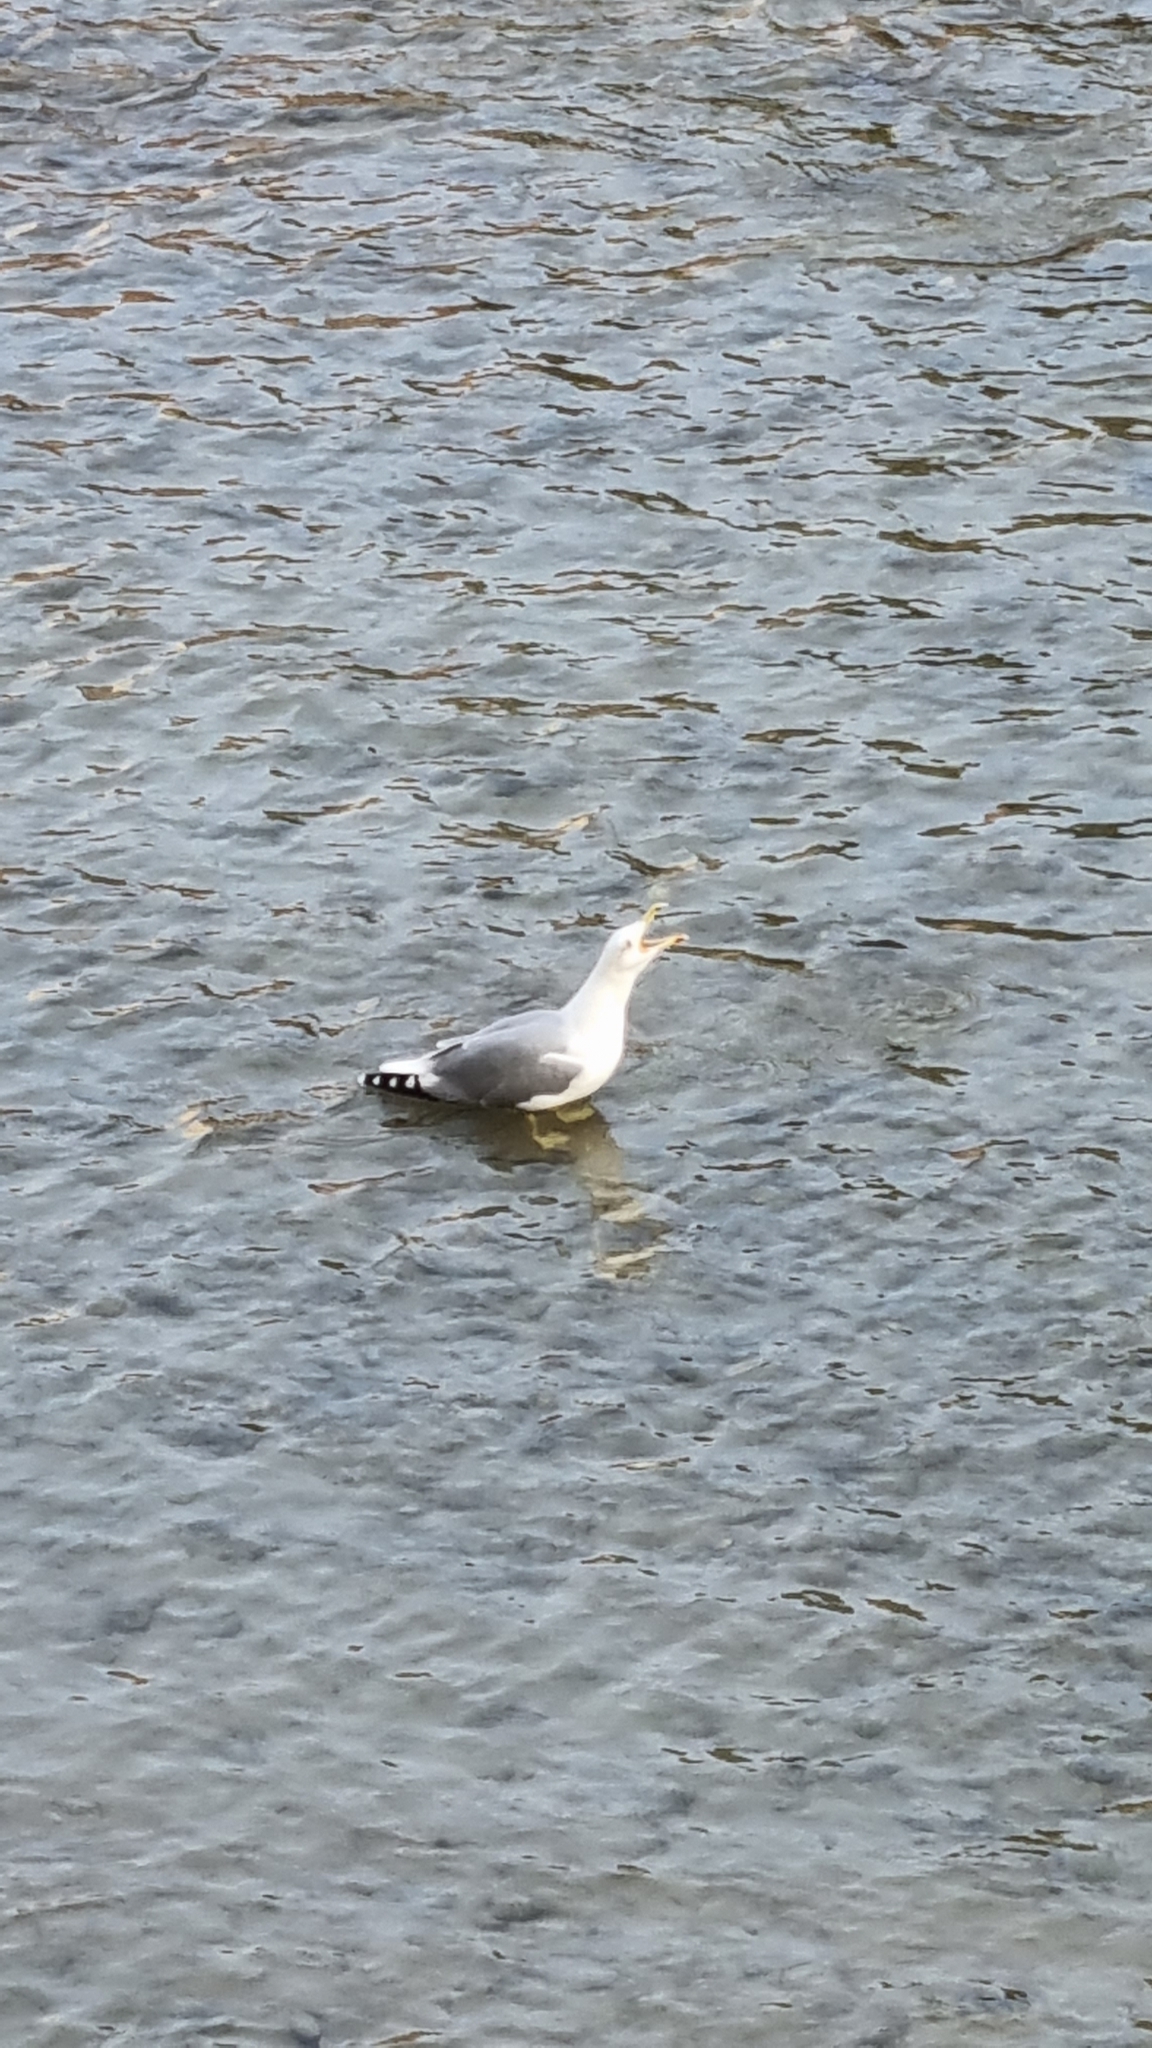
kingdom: Animalia
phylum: Chordata
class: Aves
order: Charadriiformes
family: Laridae
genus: Larus
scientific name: Larus michahellis
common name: Yellow-legged gull
